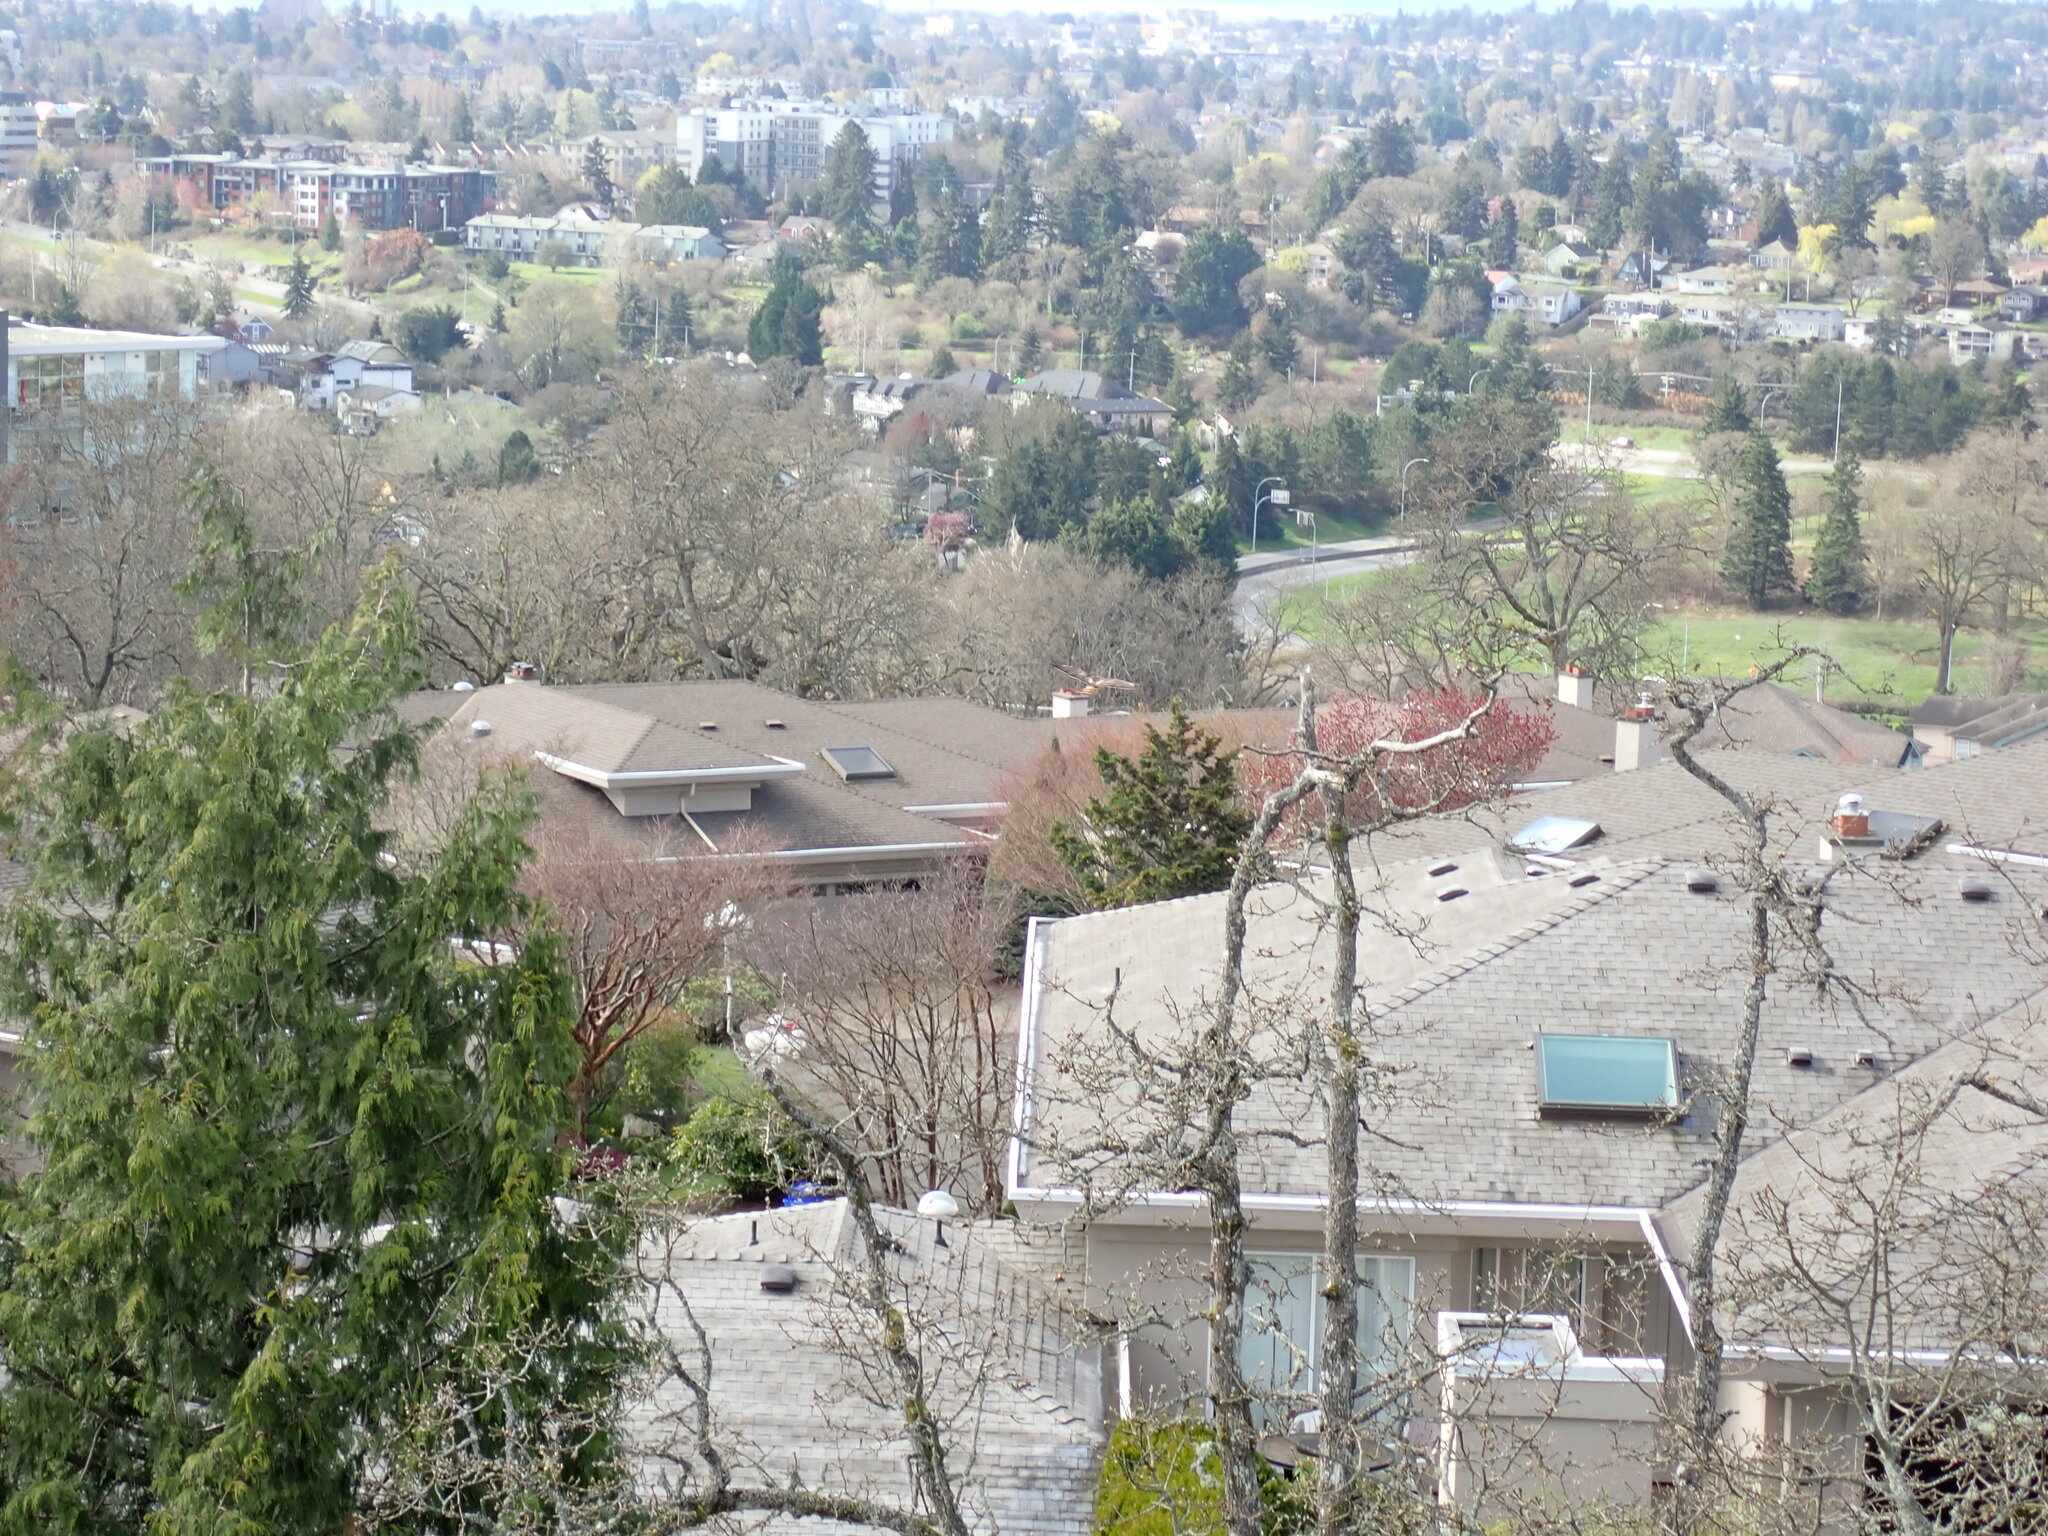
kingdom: Animalia
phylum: Chordata
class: Aves
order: Accipitriformes
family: Accipitridae
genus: Buteo
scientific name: Buteo jamaicensis
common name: Red-tailed hawk
